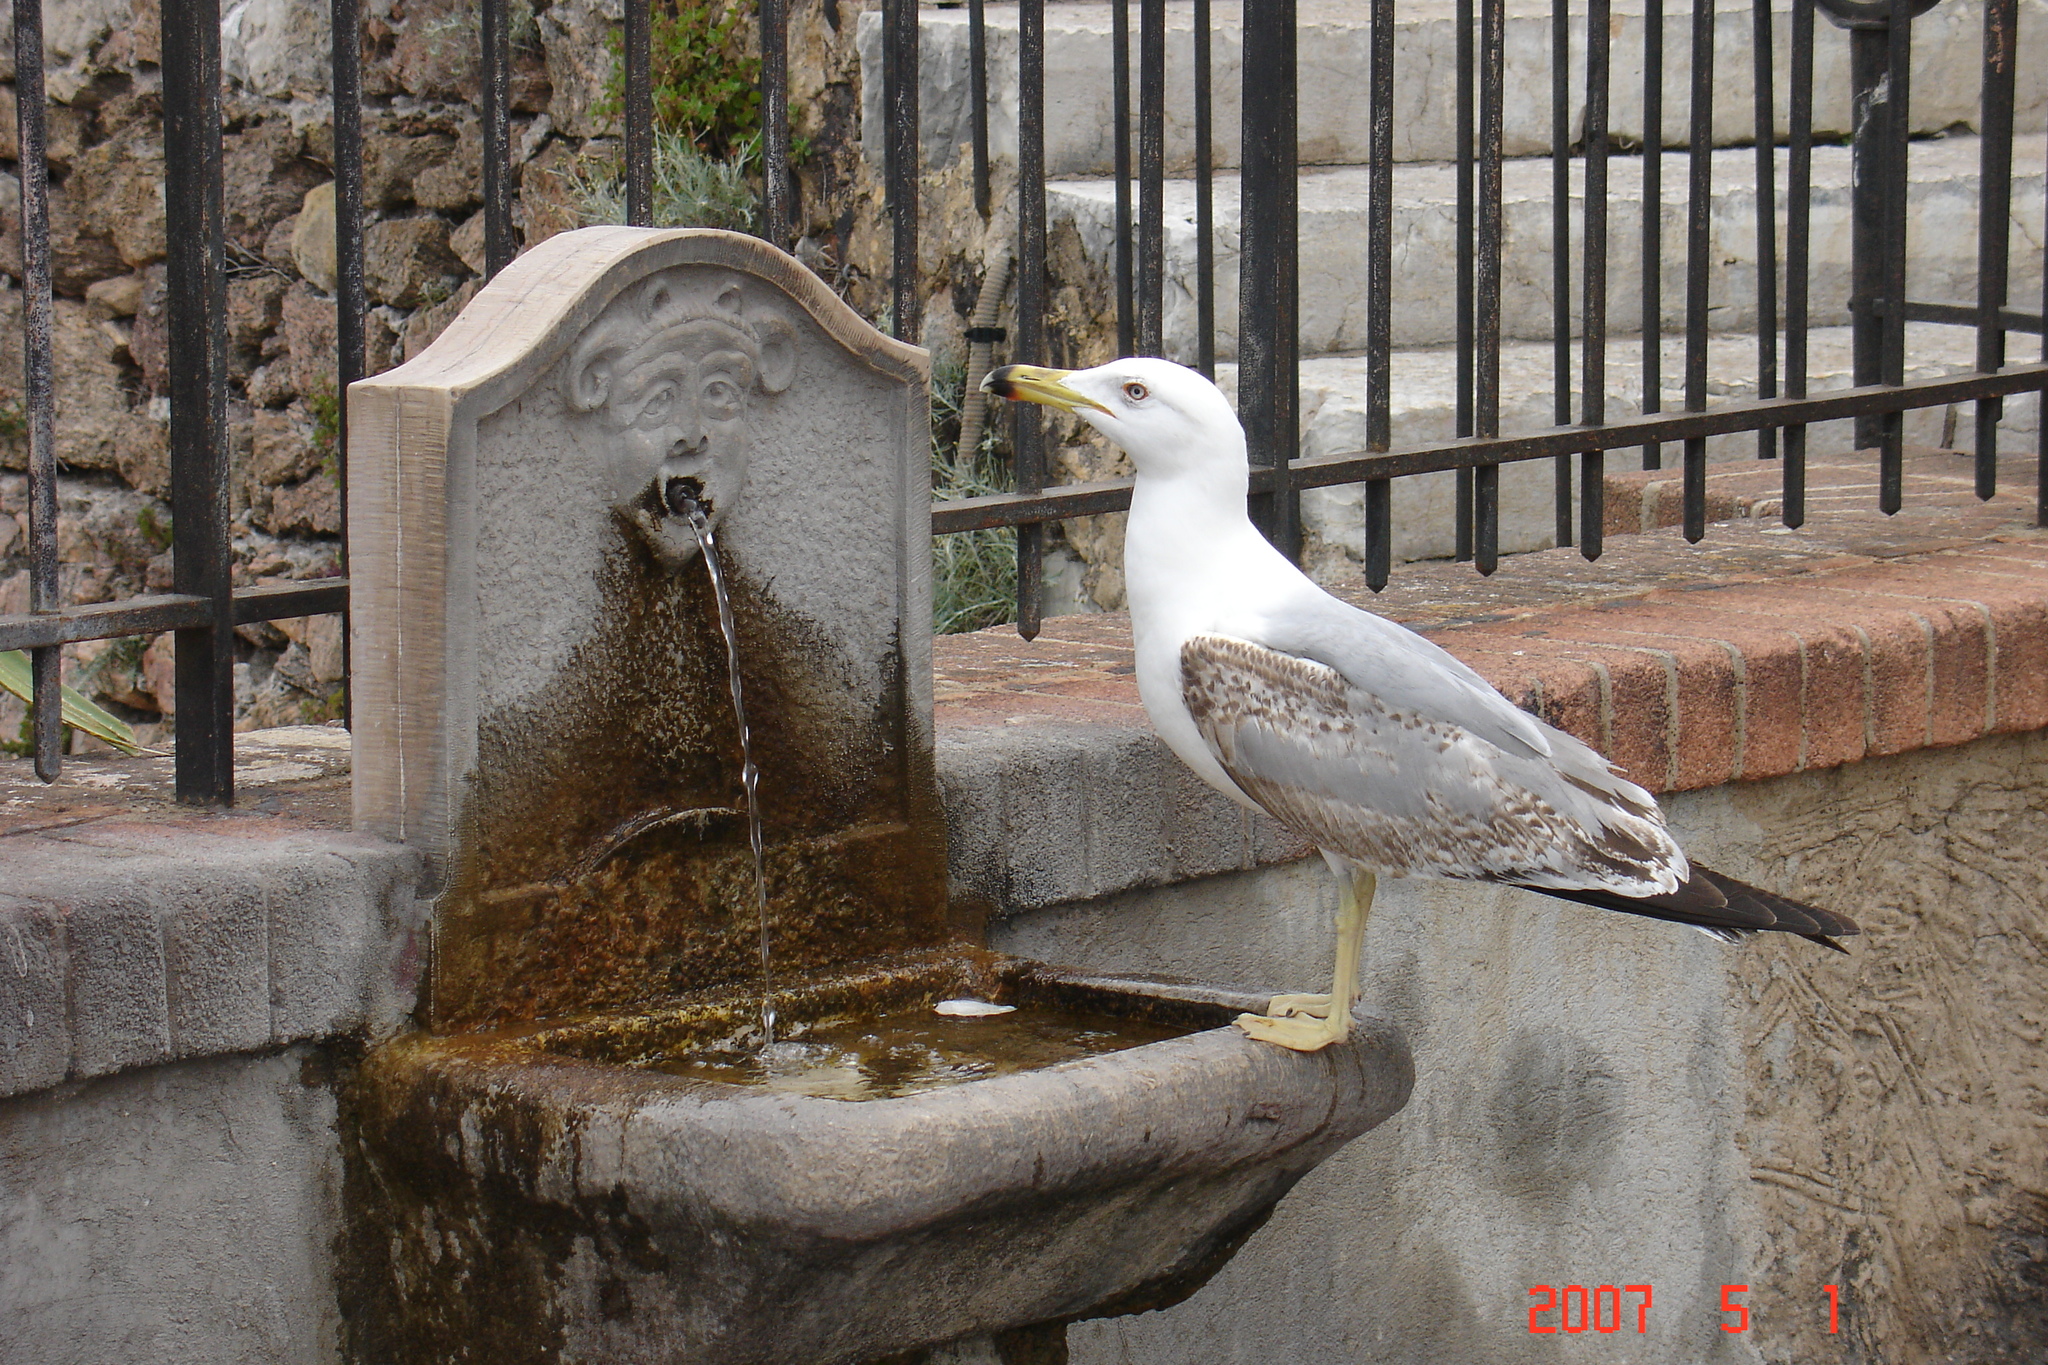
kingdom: Animalia
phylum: Chordata
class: Aves
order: Charadriiformes
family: Laridae
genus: Larus
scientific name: Larus michahellis
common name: Yellow-legged gull
